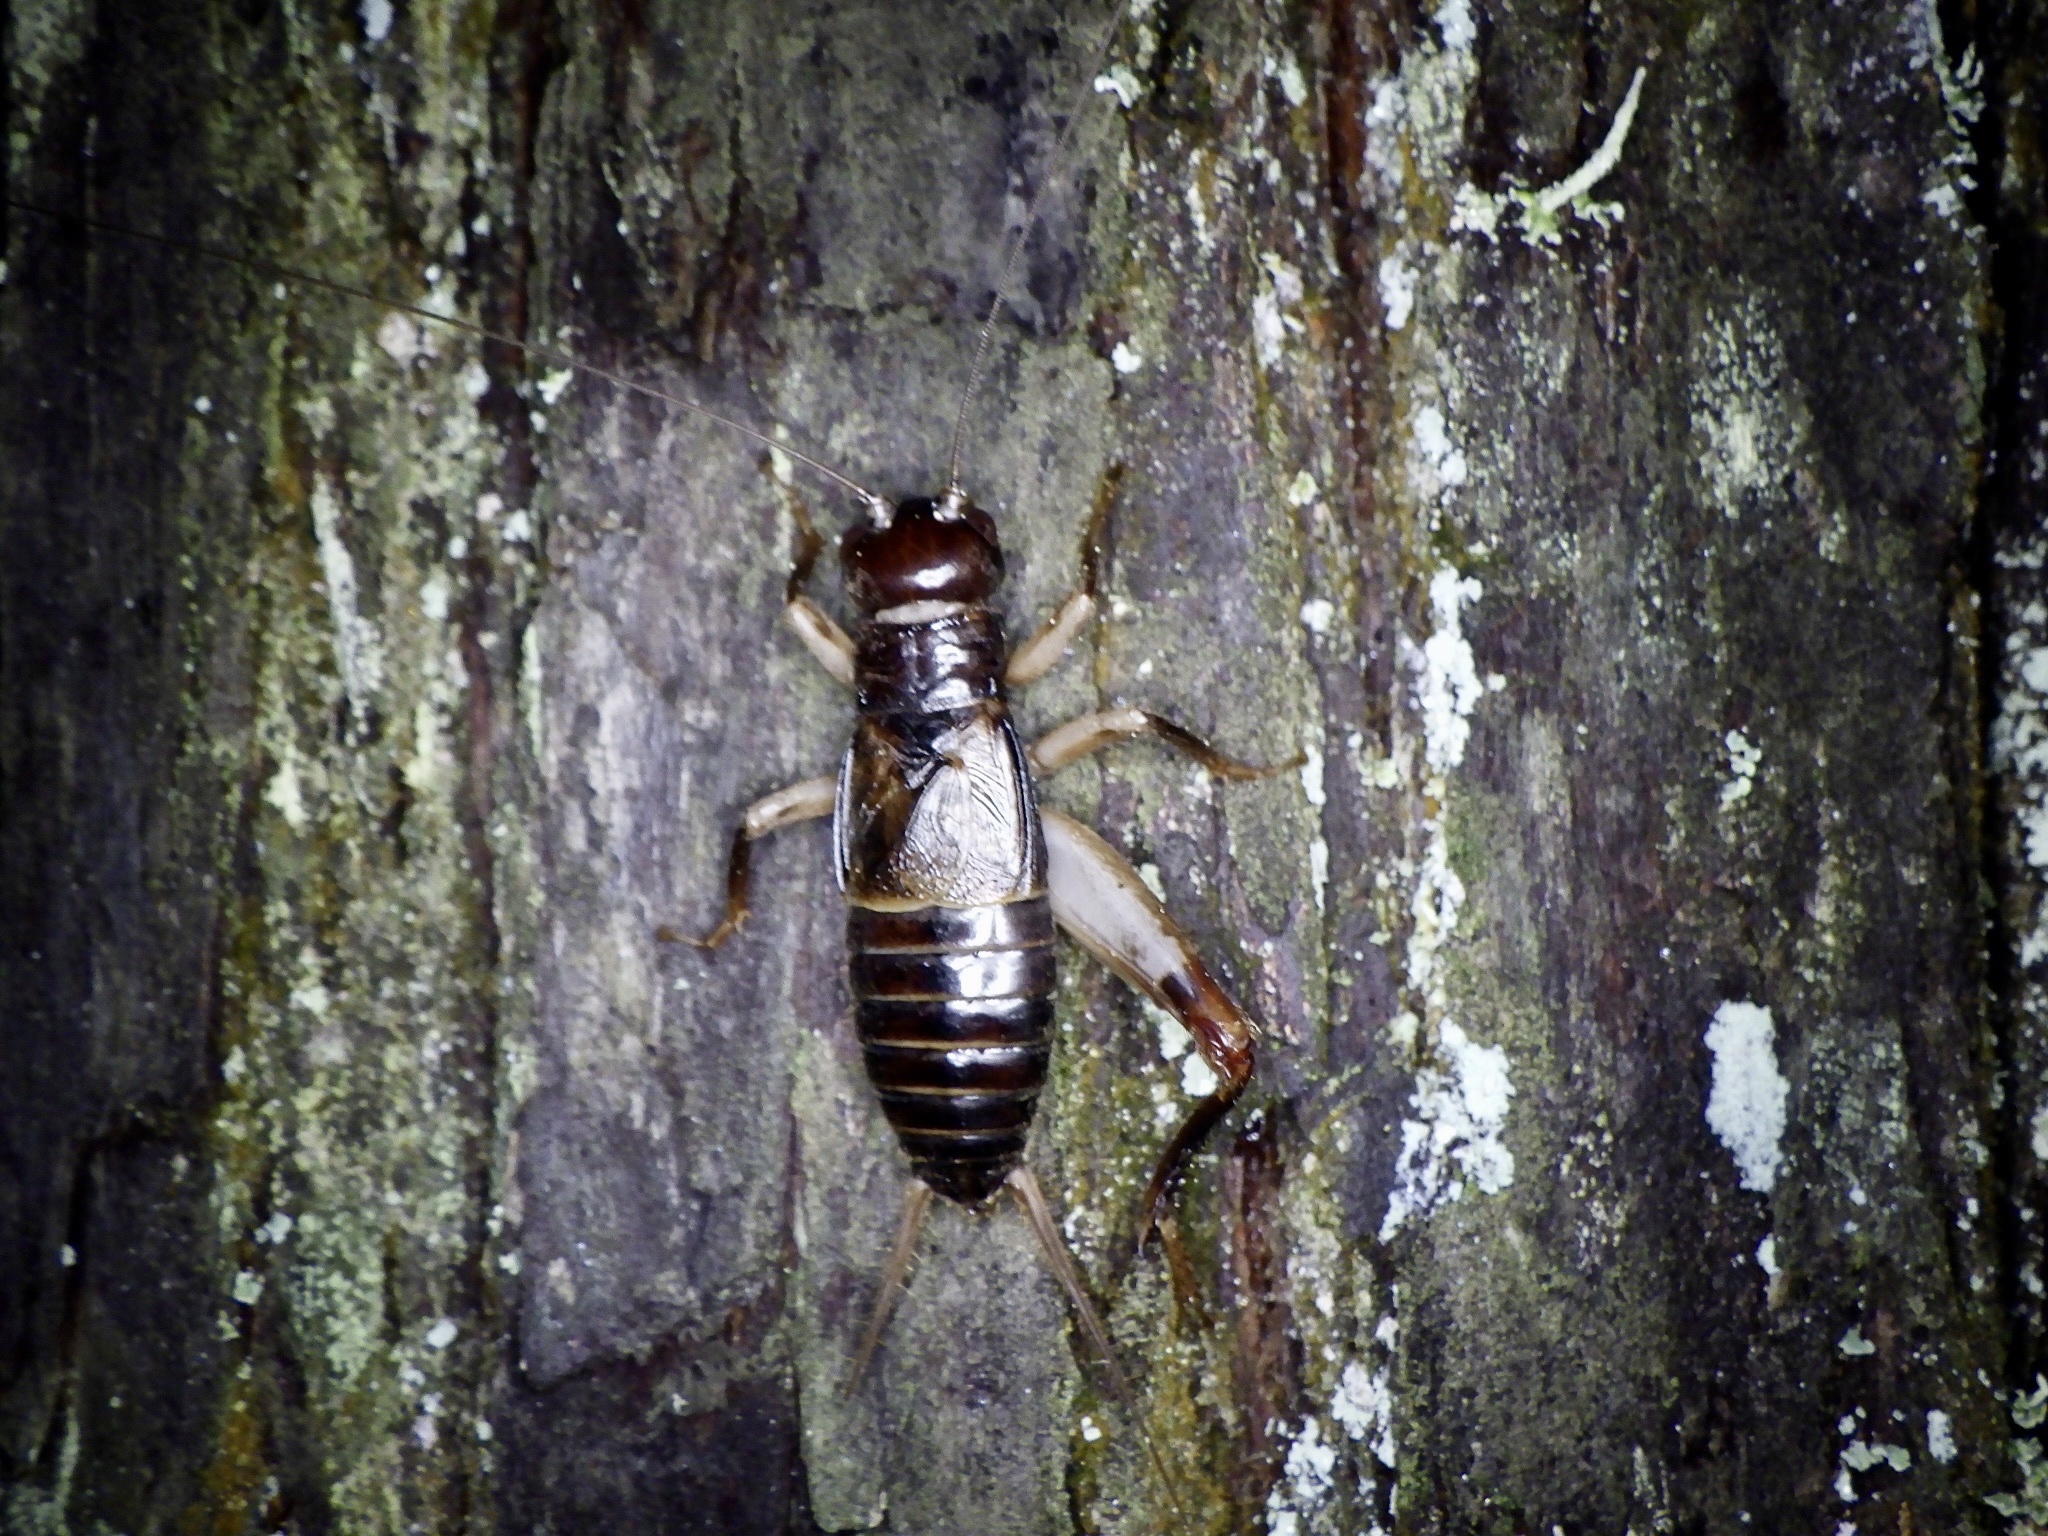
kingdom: Animalia
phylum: Arthropoda
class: Insecta
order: Orthoptera
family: Gryllidae
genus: Duolandrevus
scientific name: Duolandrevus ivani
